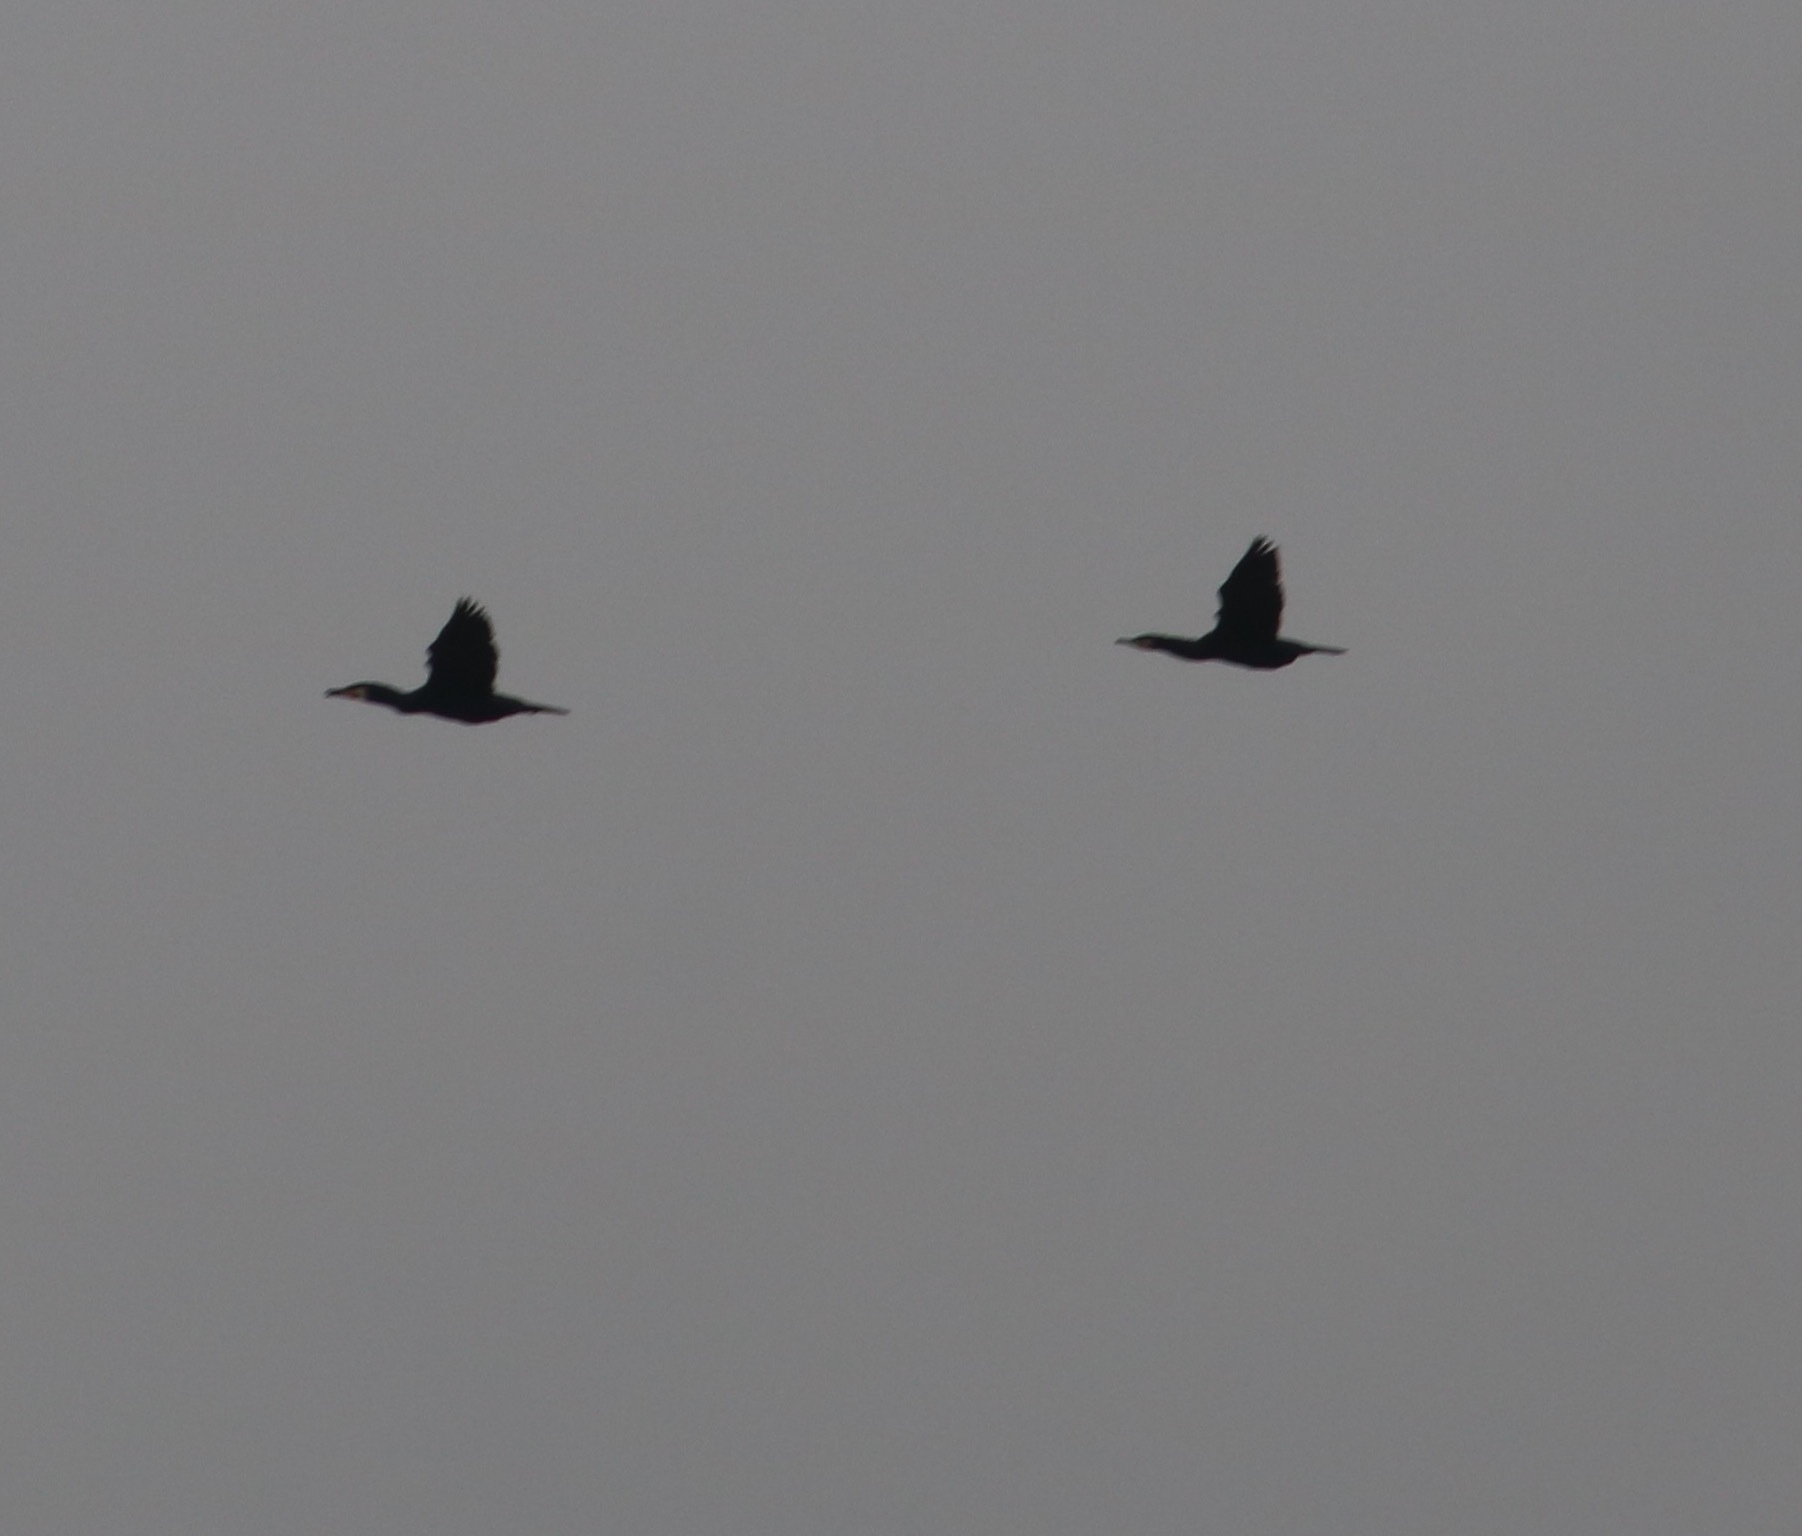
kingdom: Animalia
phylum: Chordata
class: Aves
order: Suliformes
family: Phalacrocoracidae
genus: Phalacrocorax
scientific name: Phalacrocorax carbo
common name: Great cormorant
